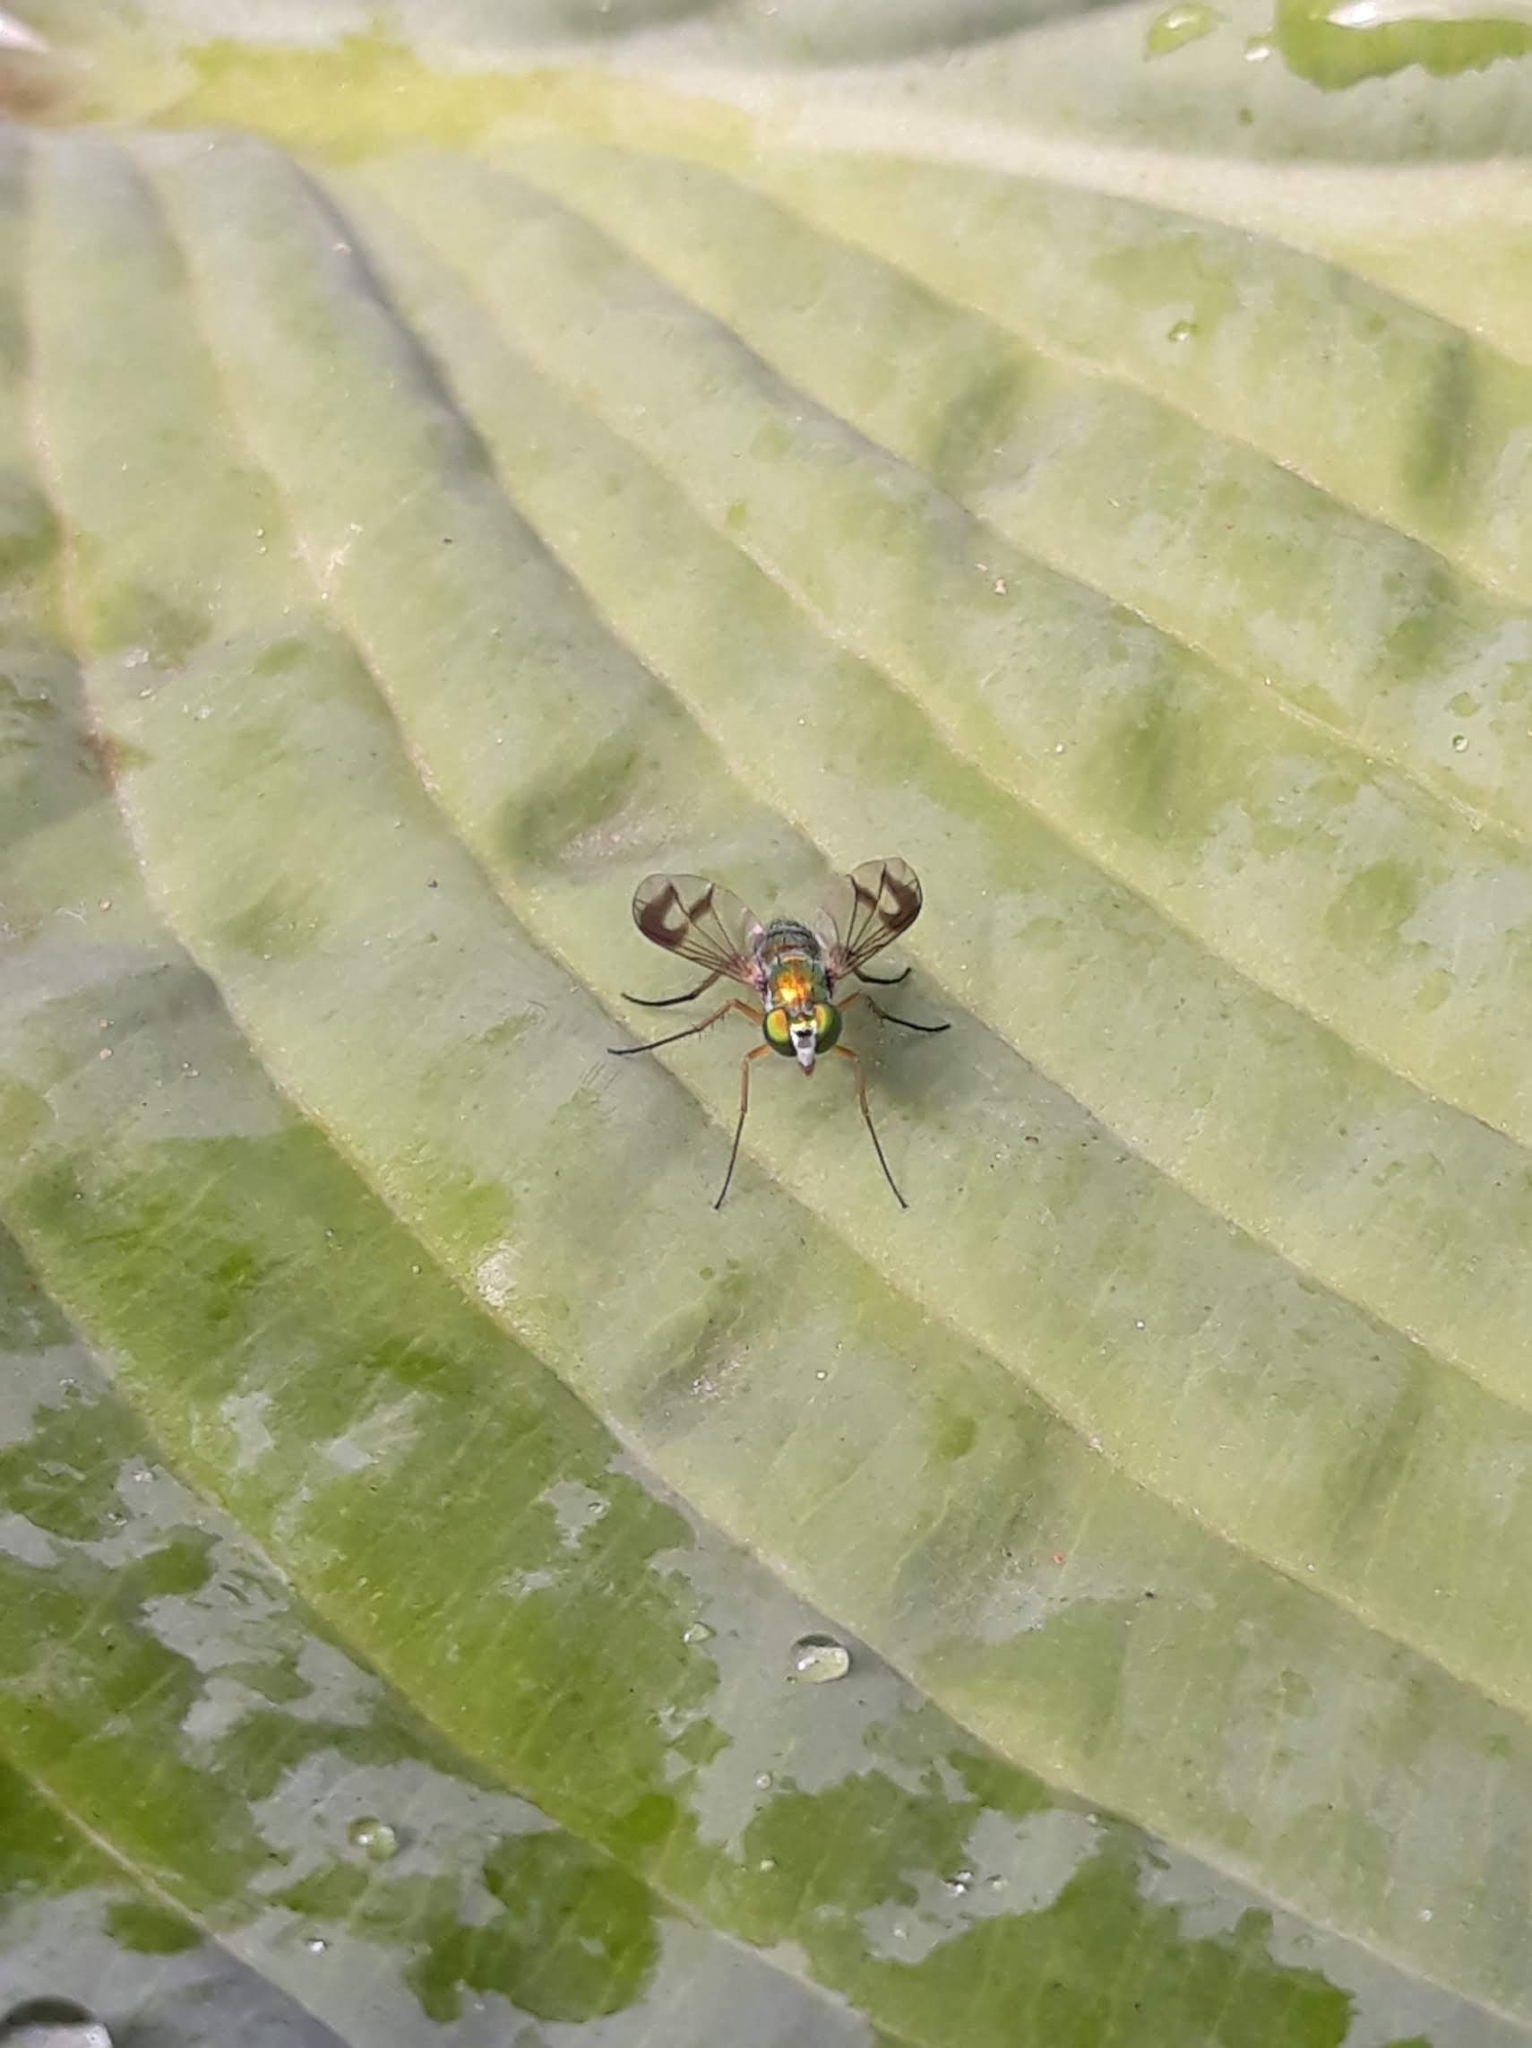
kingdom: Animalia
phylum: Arthropoda
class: Insecta
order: Diptera
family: Dolichopodidae
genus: Condylostylus
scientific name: Condylostylus
